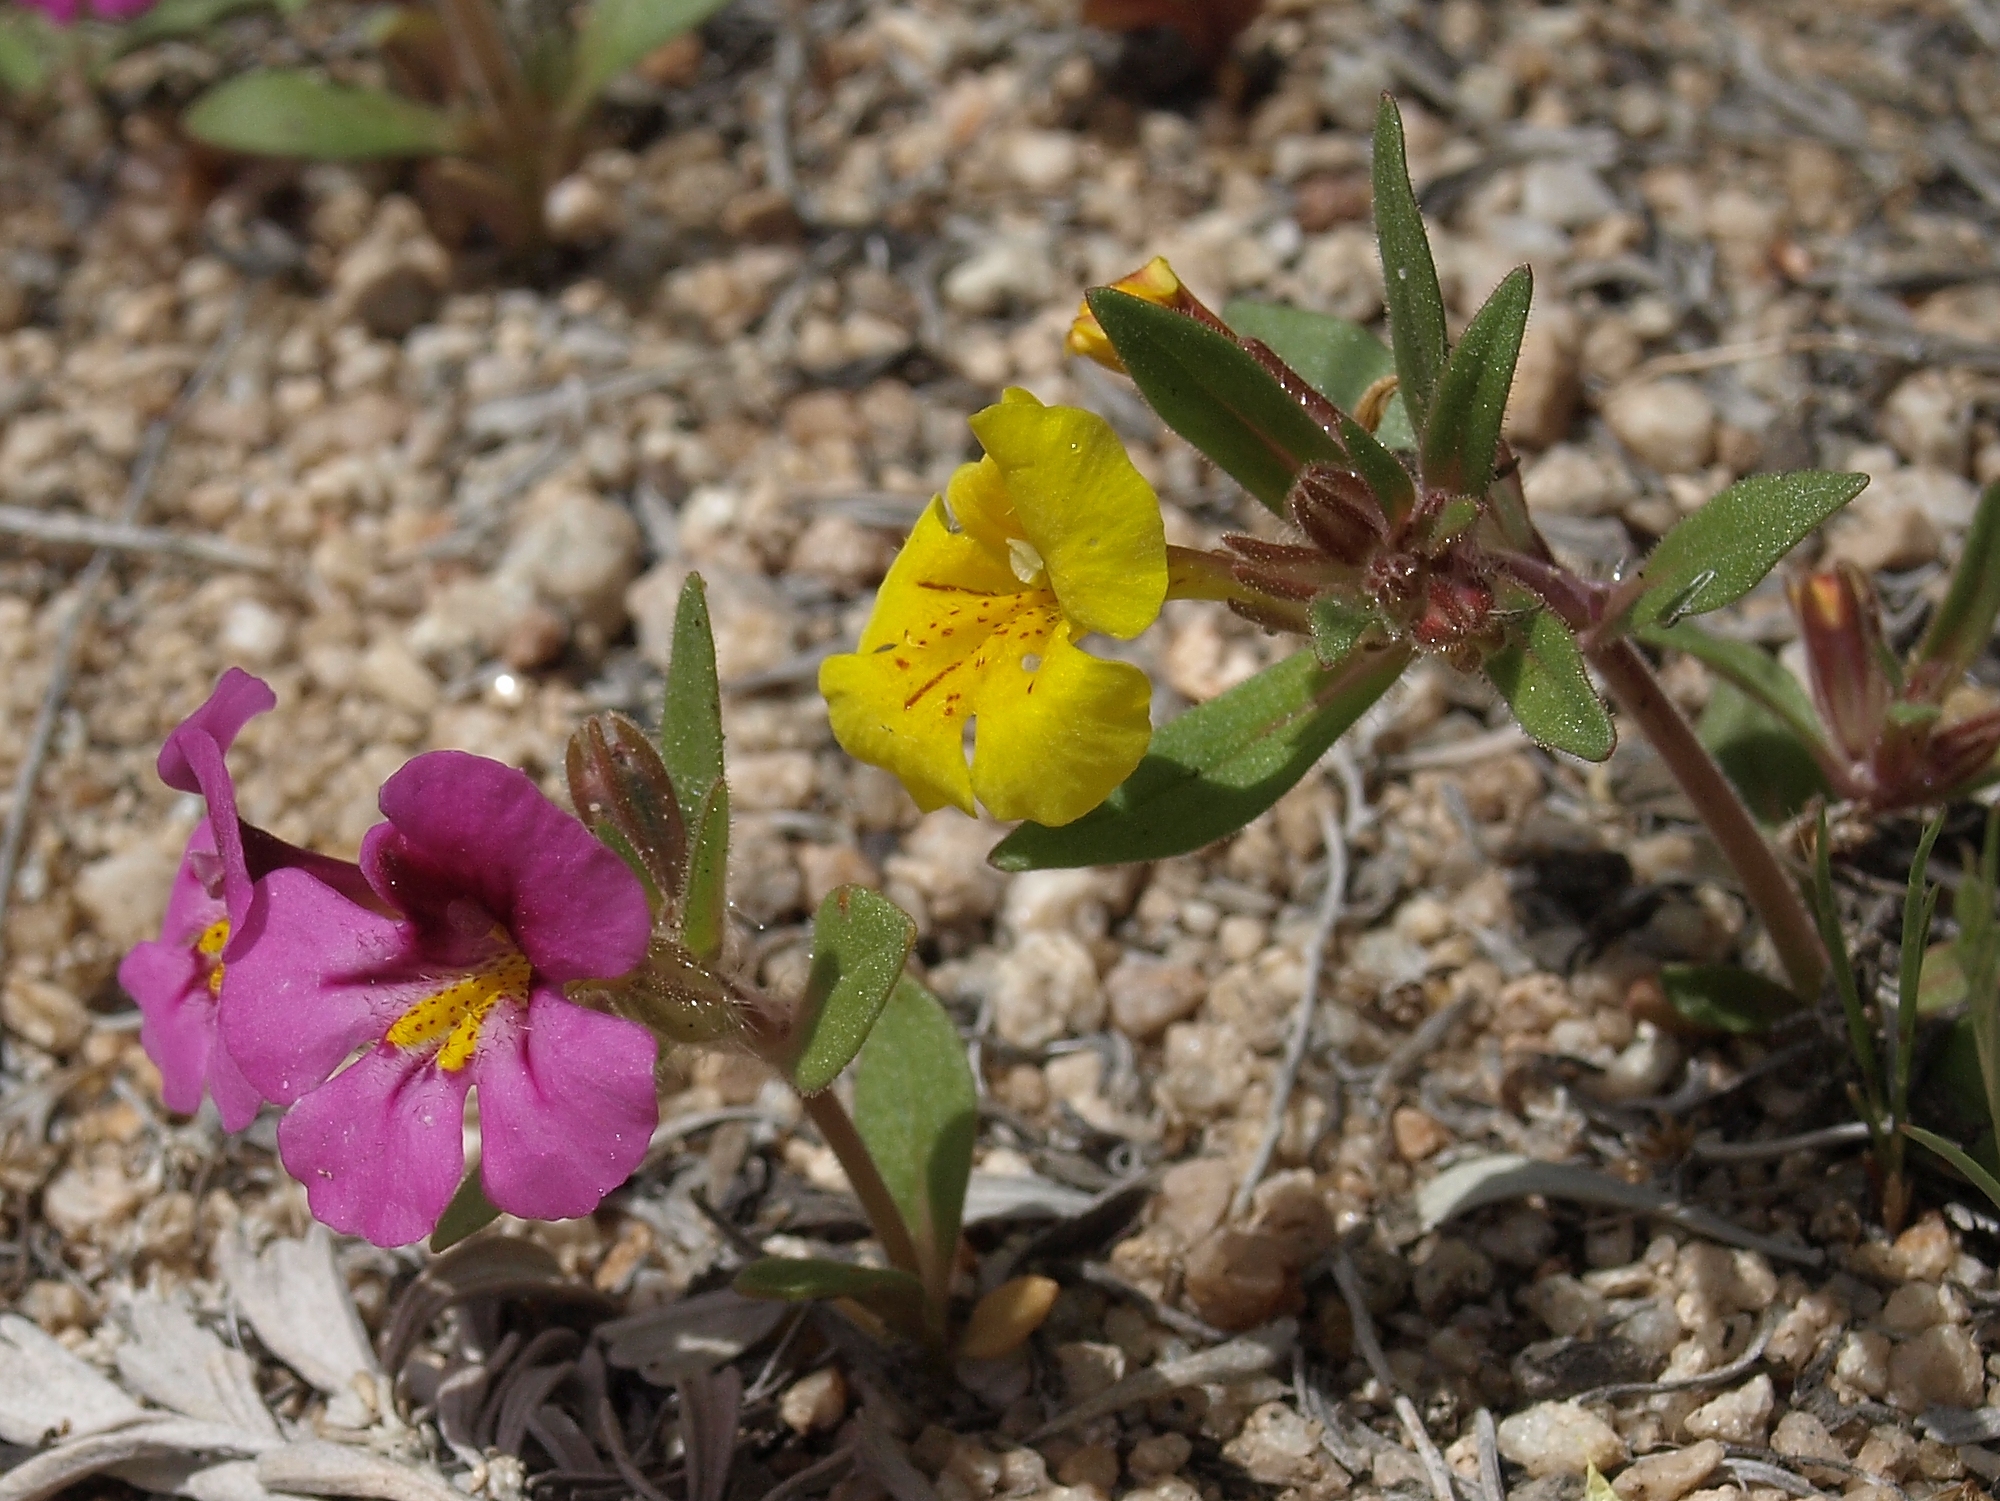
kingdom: Plantae
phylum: Tracheophyta
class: Magnoliopsida
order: Lamiales
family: Phrymaceae
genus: Diplacus
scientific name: Diplacus mephiticus
